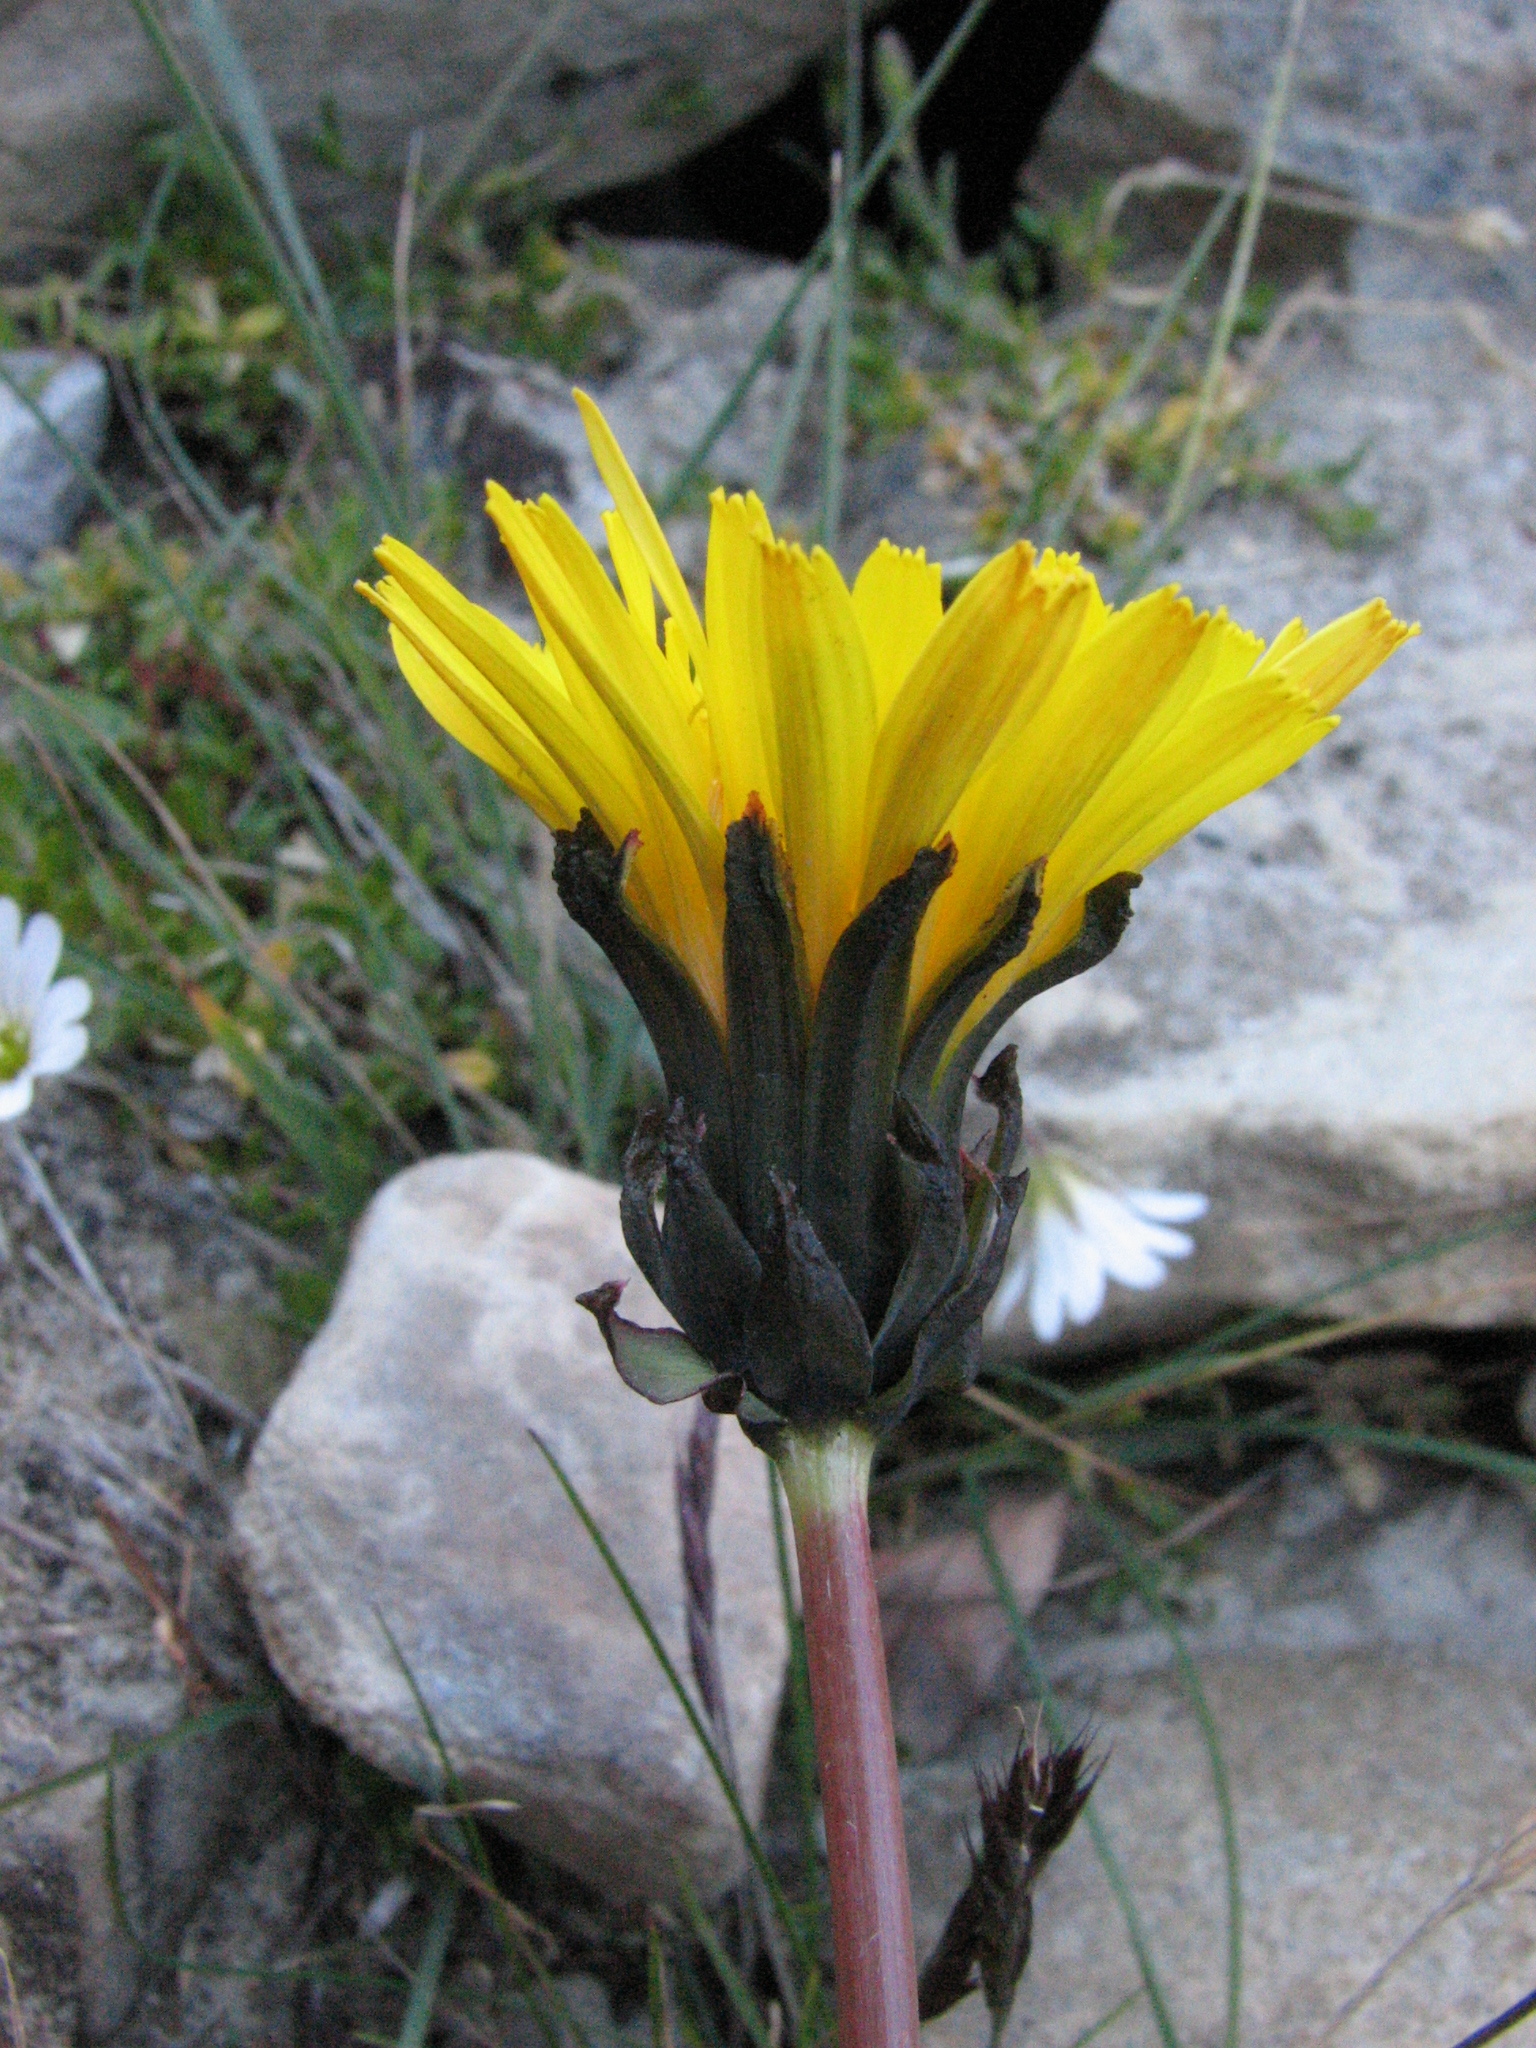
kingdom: Plantae
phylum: Tracheophyta
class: Magnoliopsida
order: Asterales
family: Asteraceae
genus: Taraxacum
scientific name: Taraxacum holmenianum
